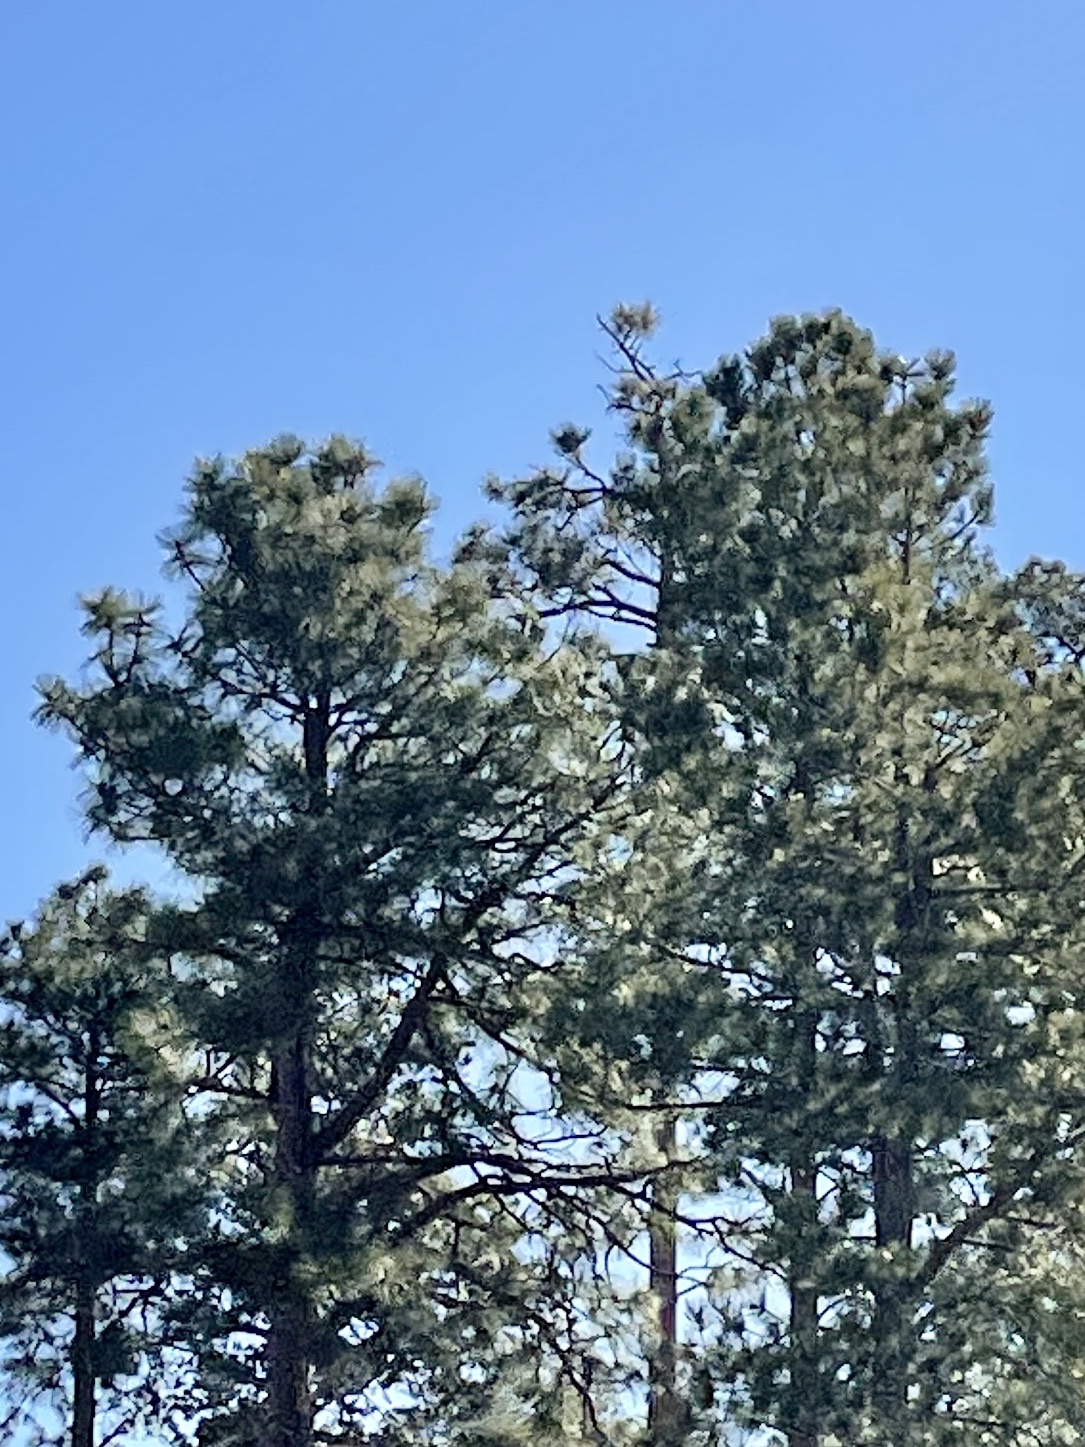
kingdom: Plantae
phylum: Tracheophyta
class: Pinopsida
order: Pinales
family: Pinaceae
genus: Pinus
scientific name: Pinus ponderosa
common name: Western yellow-pine
